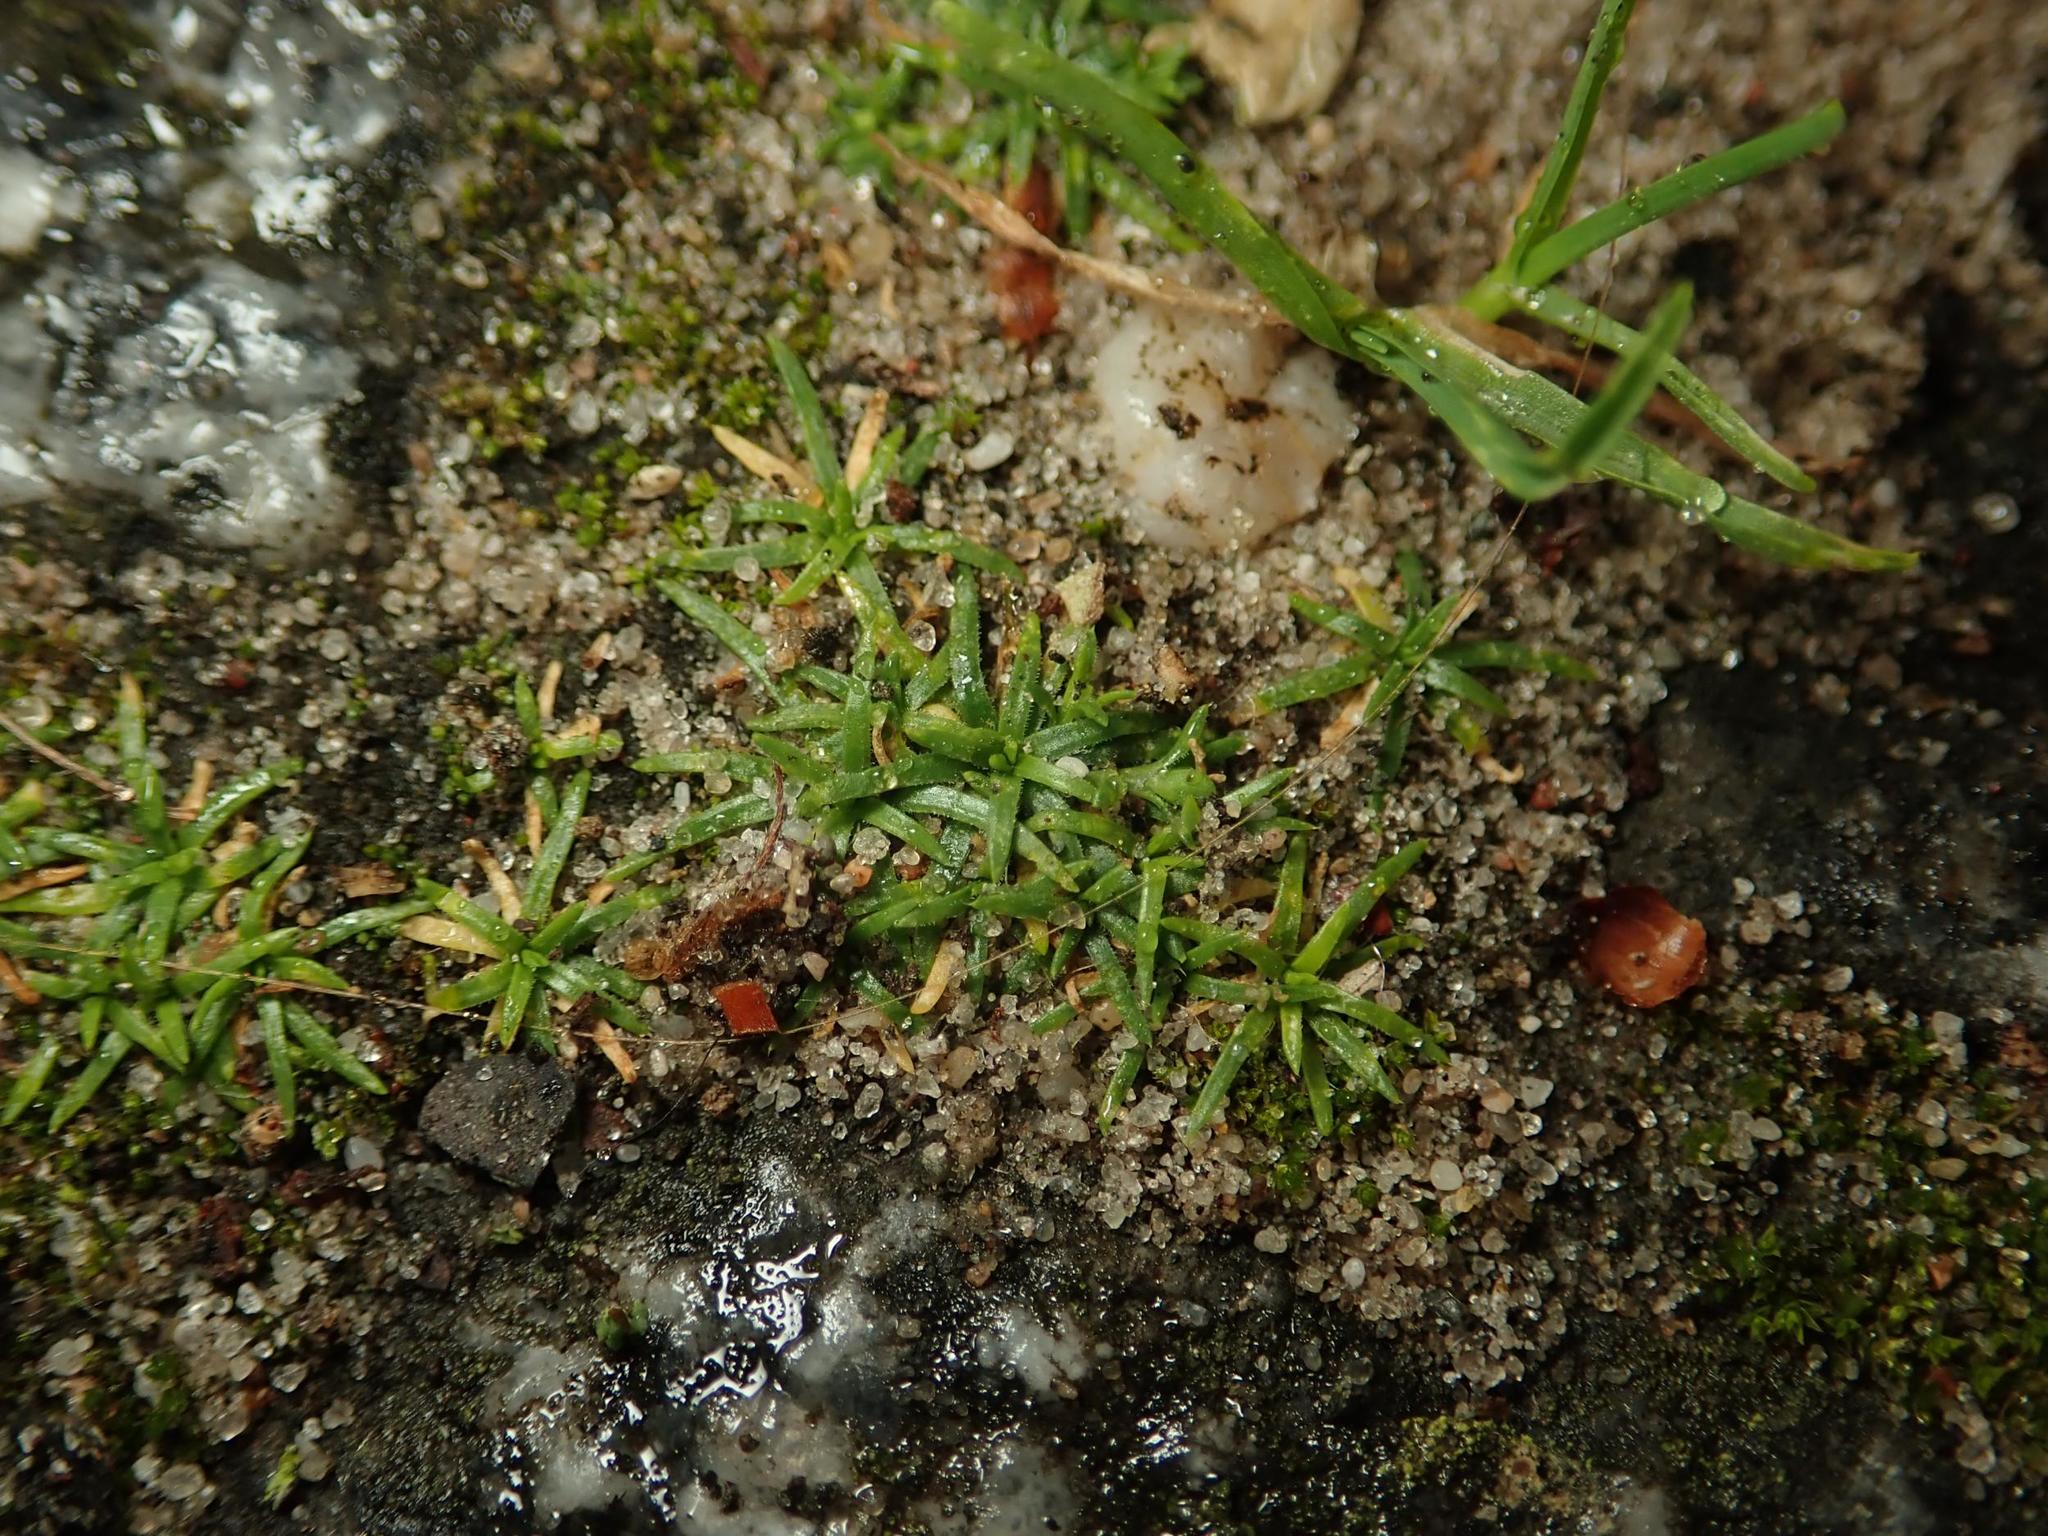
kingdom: Plantae
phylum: Tracheophyta
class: Magnoliopsida
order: Caryophyllales
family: Caryophyllaceae
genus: Sagina
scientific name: Sagina procumbens
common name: Procumbent pearlwort
